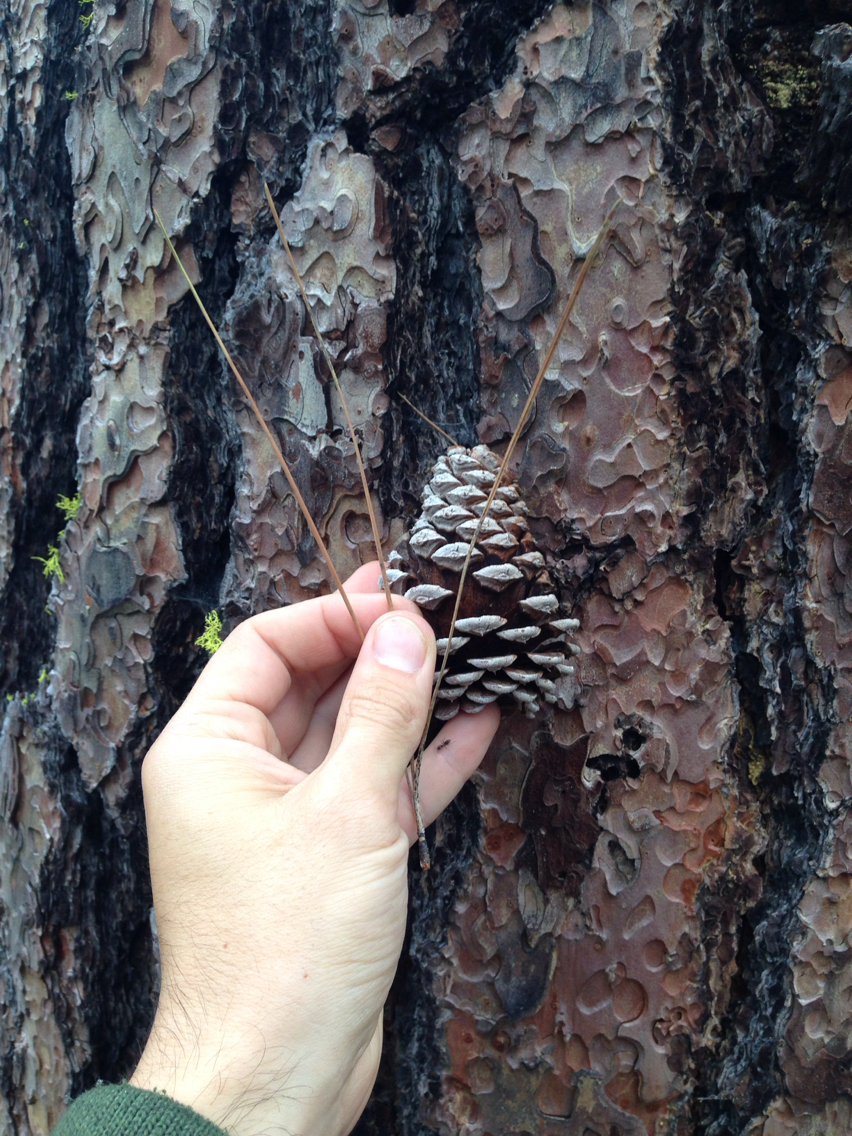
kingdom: Plantae
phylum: Tracheophyta
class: Pinopsida
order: Pinales
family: Pinaceae
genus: Pinus
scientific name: Pinus ponderosa
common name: Western yellow-pine
